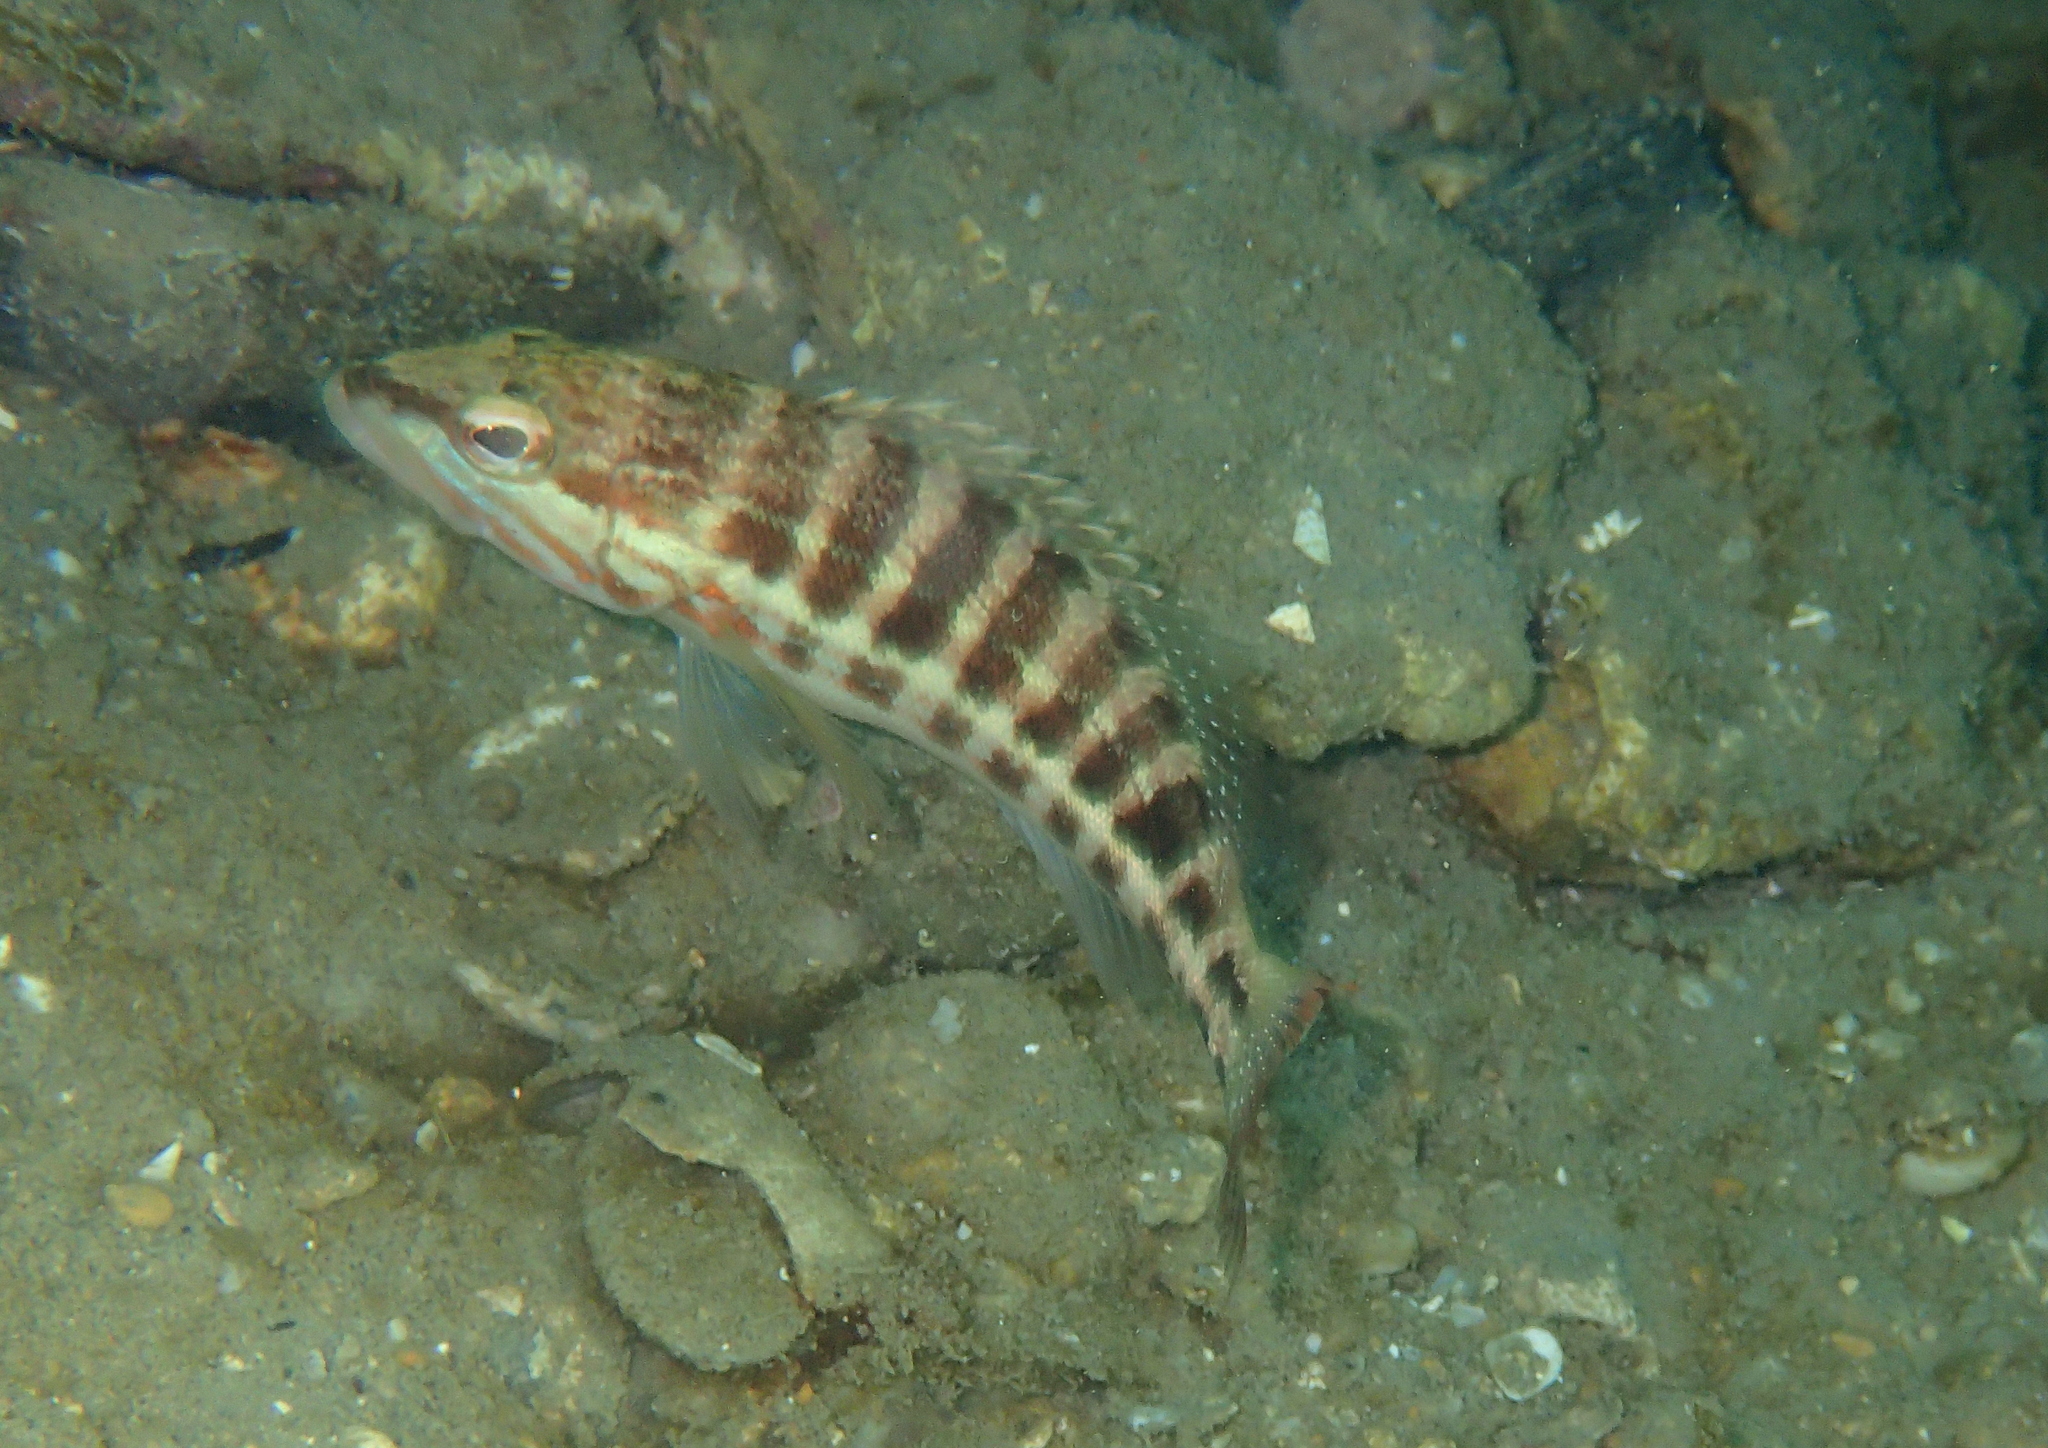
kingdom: Animalia
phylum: Chordata
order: Perciformes
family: Serranidae
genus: Serranus
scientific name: Serranus cabrilla
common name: Comber
